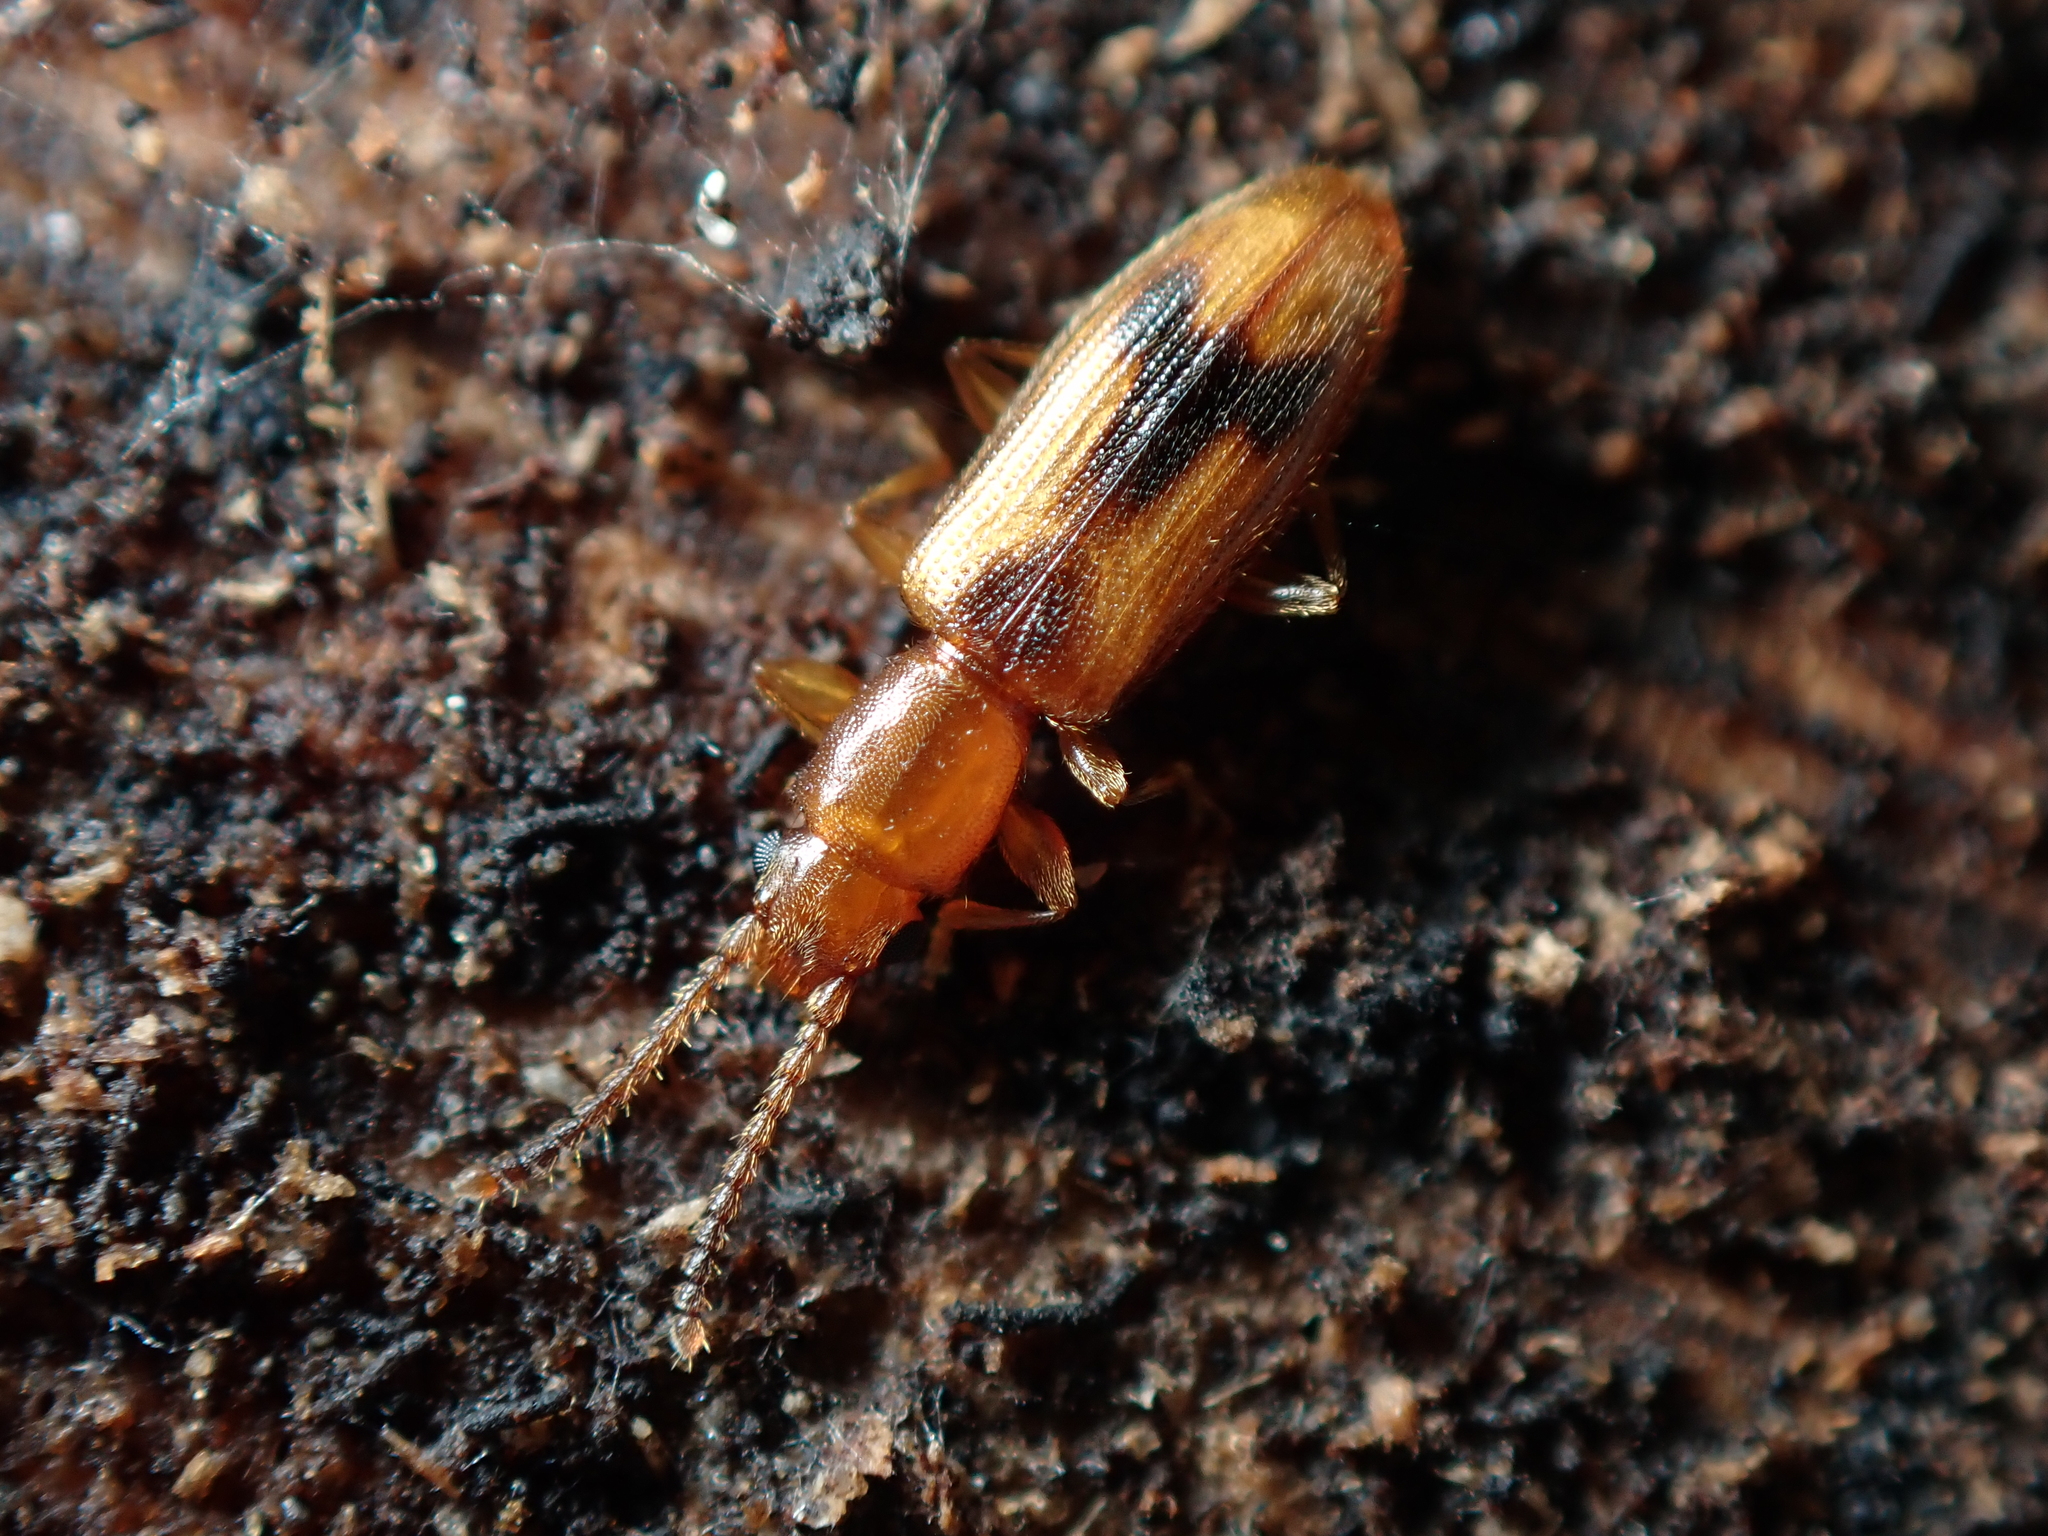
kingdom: Animalia
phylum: Arthropoda
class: Insecta
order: Coleoptera
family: Silvanidae
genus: Cryptamorpha
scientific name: Cryptamorpha desjardinsi
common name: Cryptamorpha
